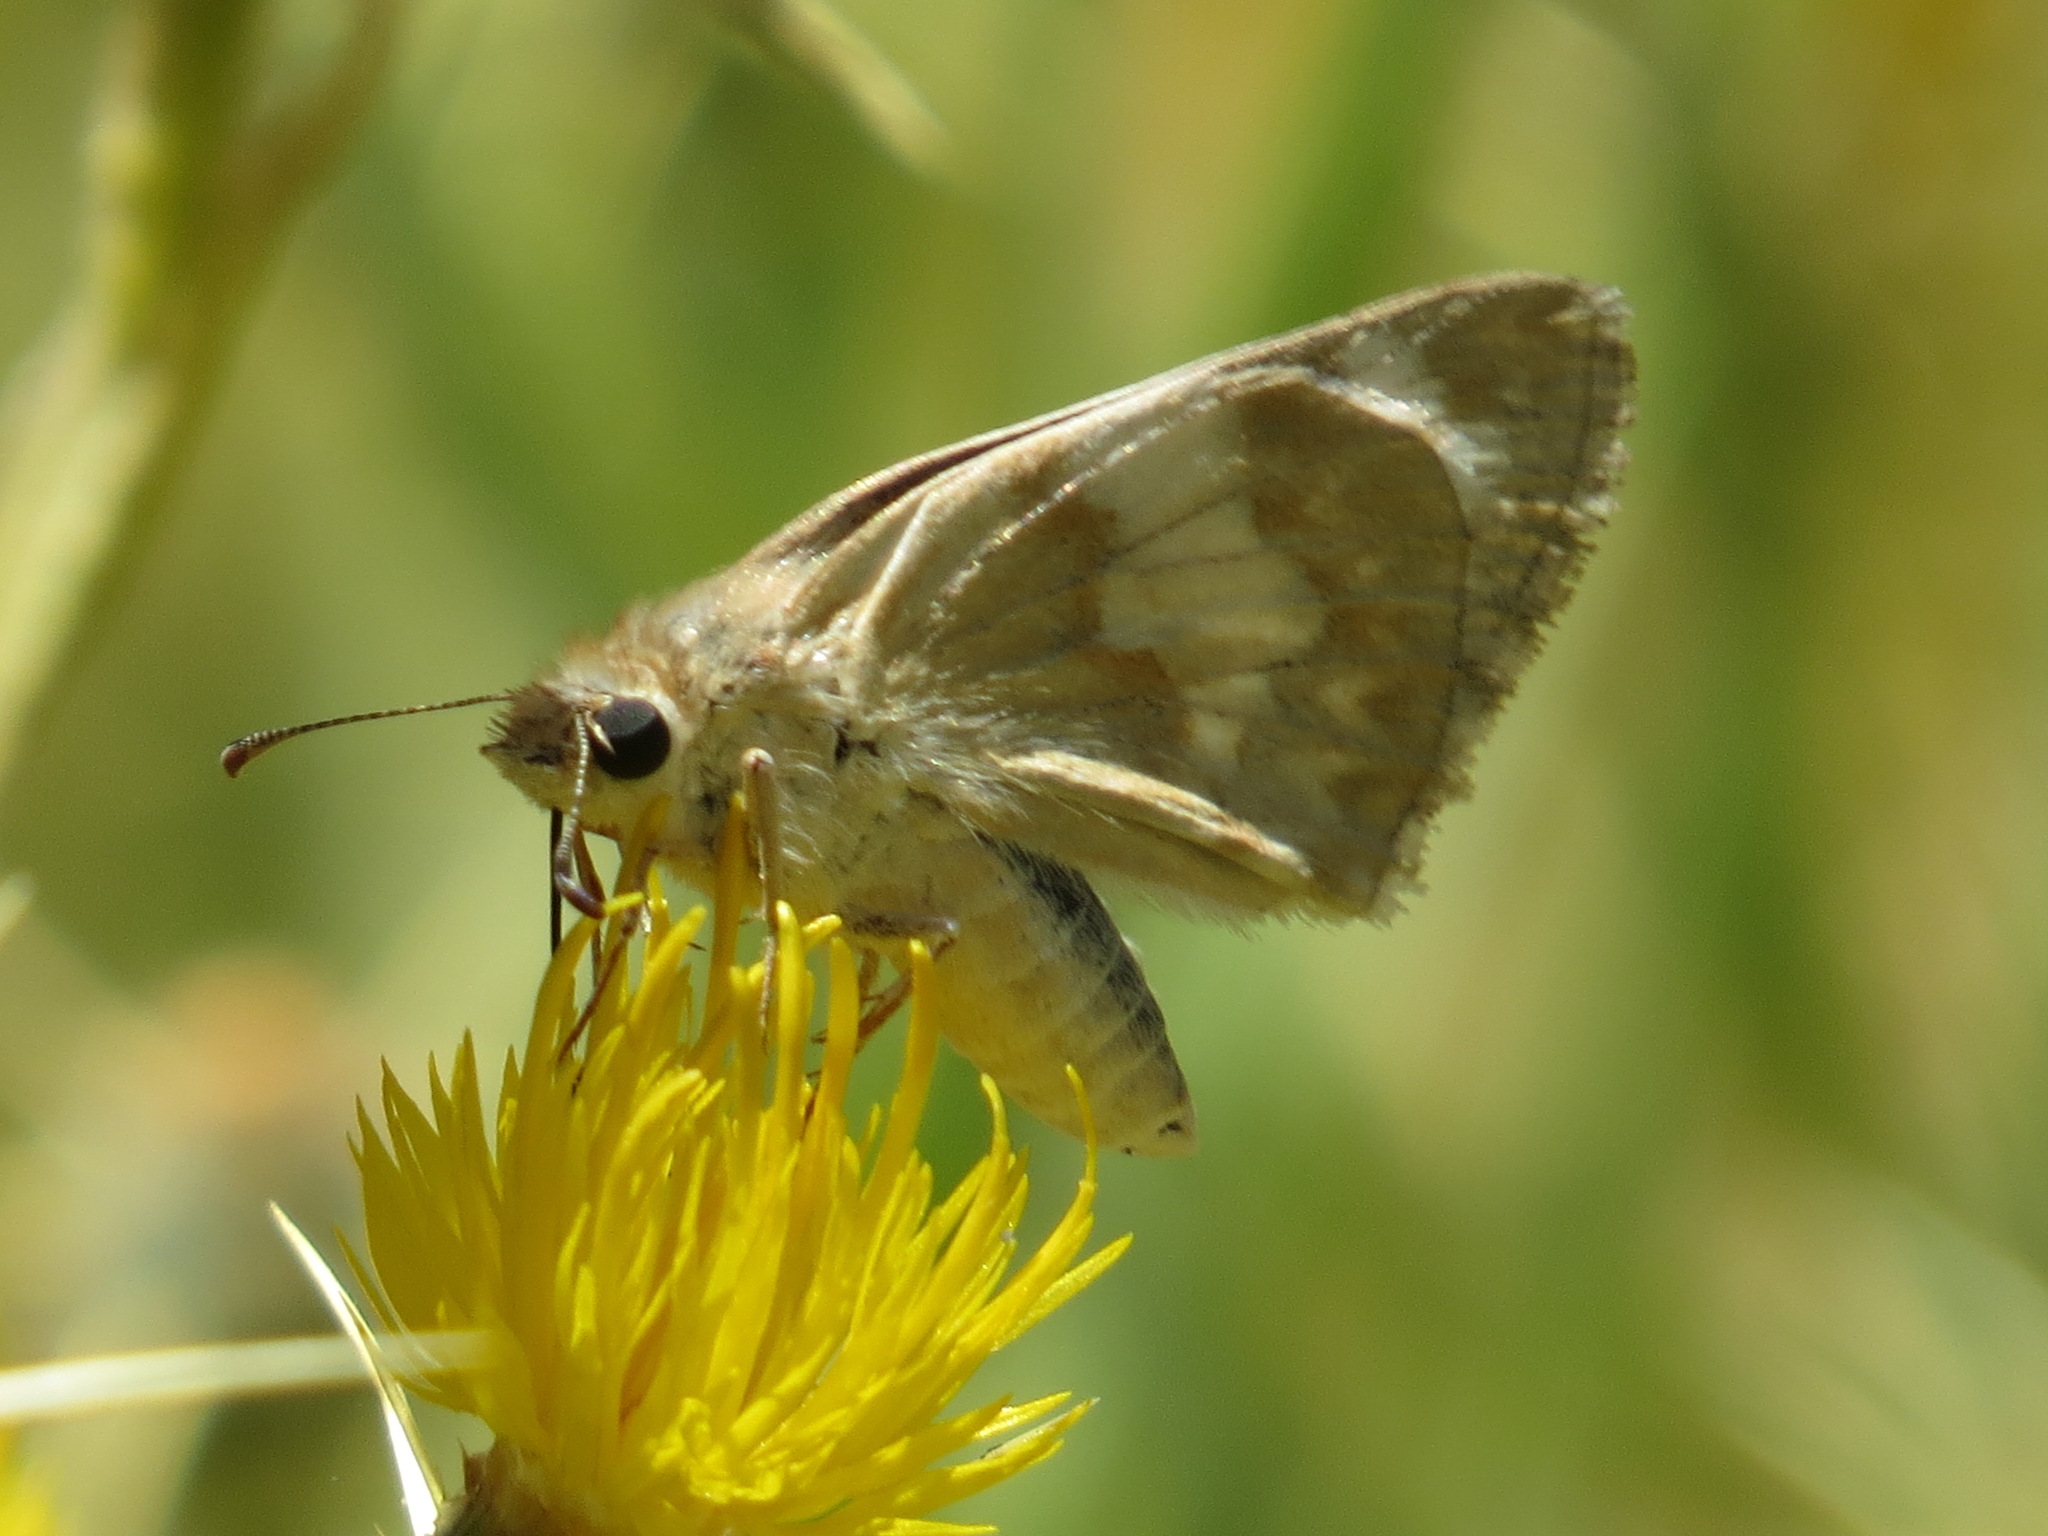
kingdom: Animalia
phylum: Arthropoda
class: Insecta
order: Lepidoptera
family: Hesperiidae
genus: Heliopetes
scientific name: Heliopetes ericetorum
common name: Northern white-skipper
